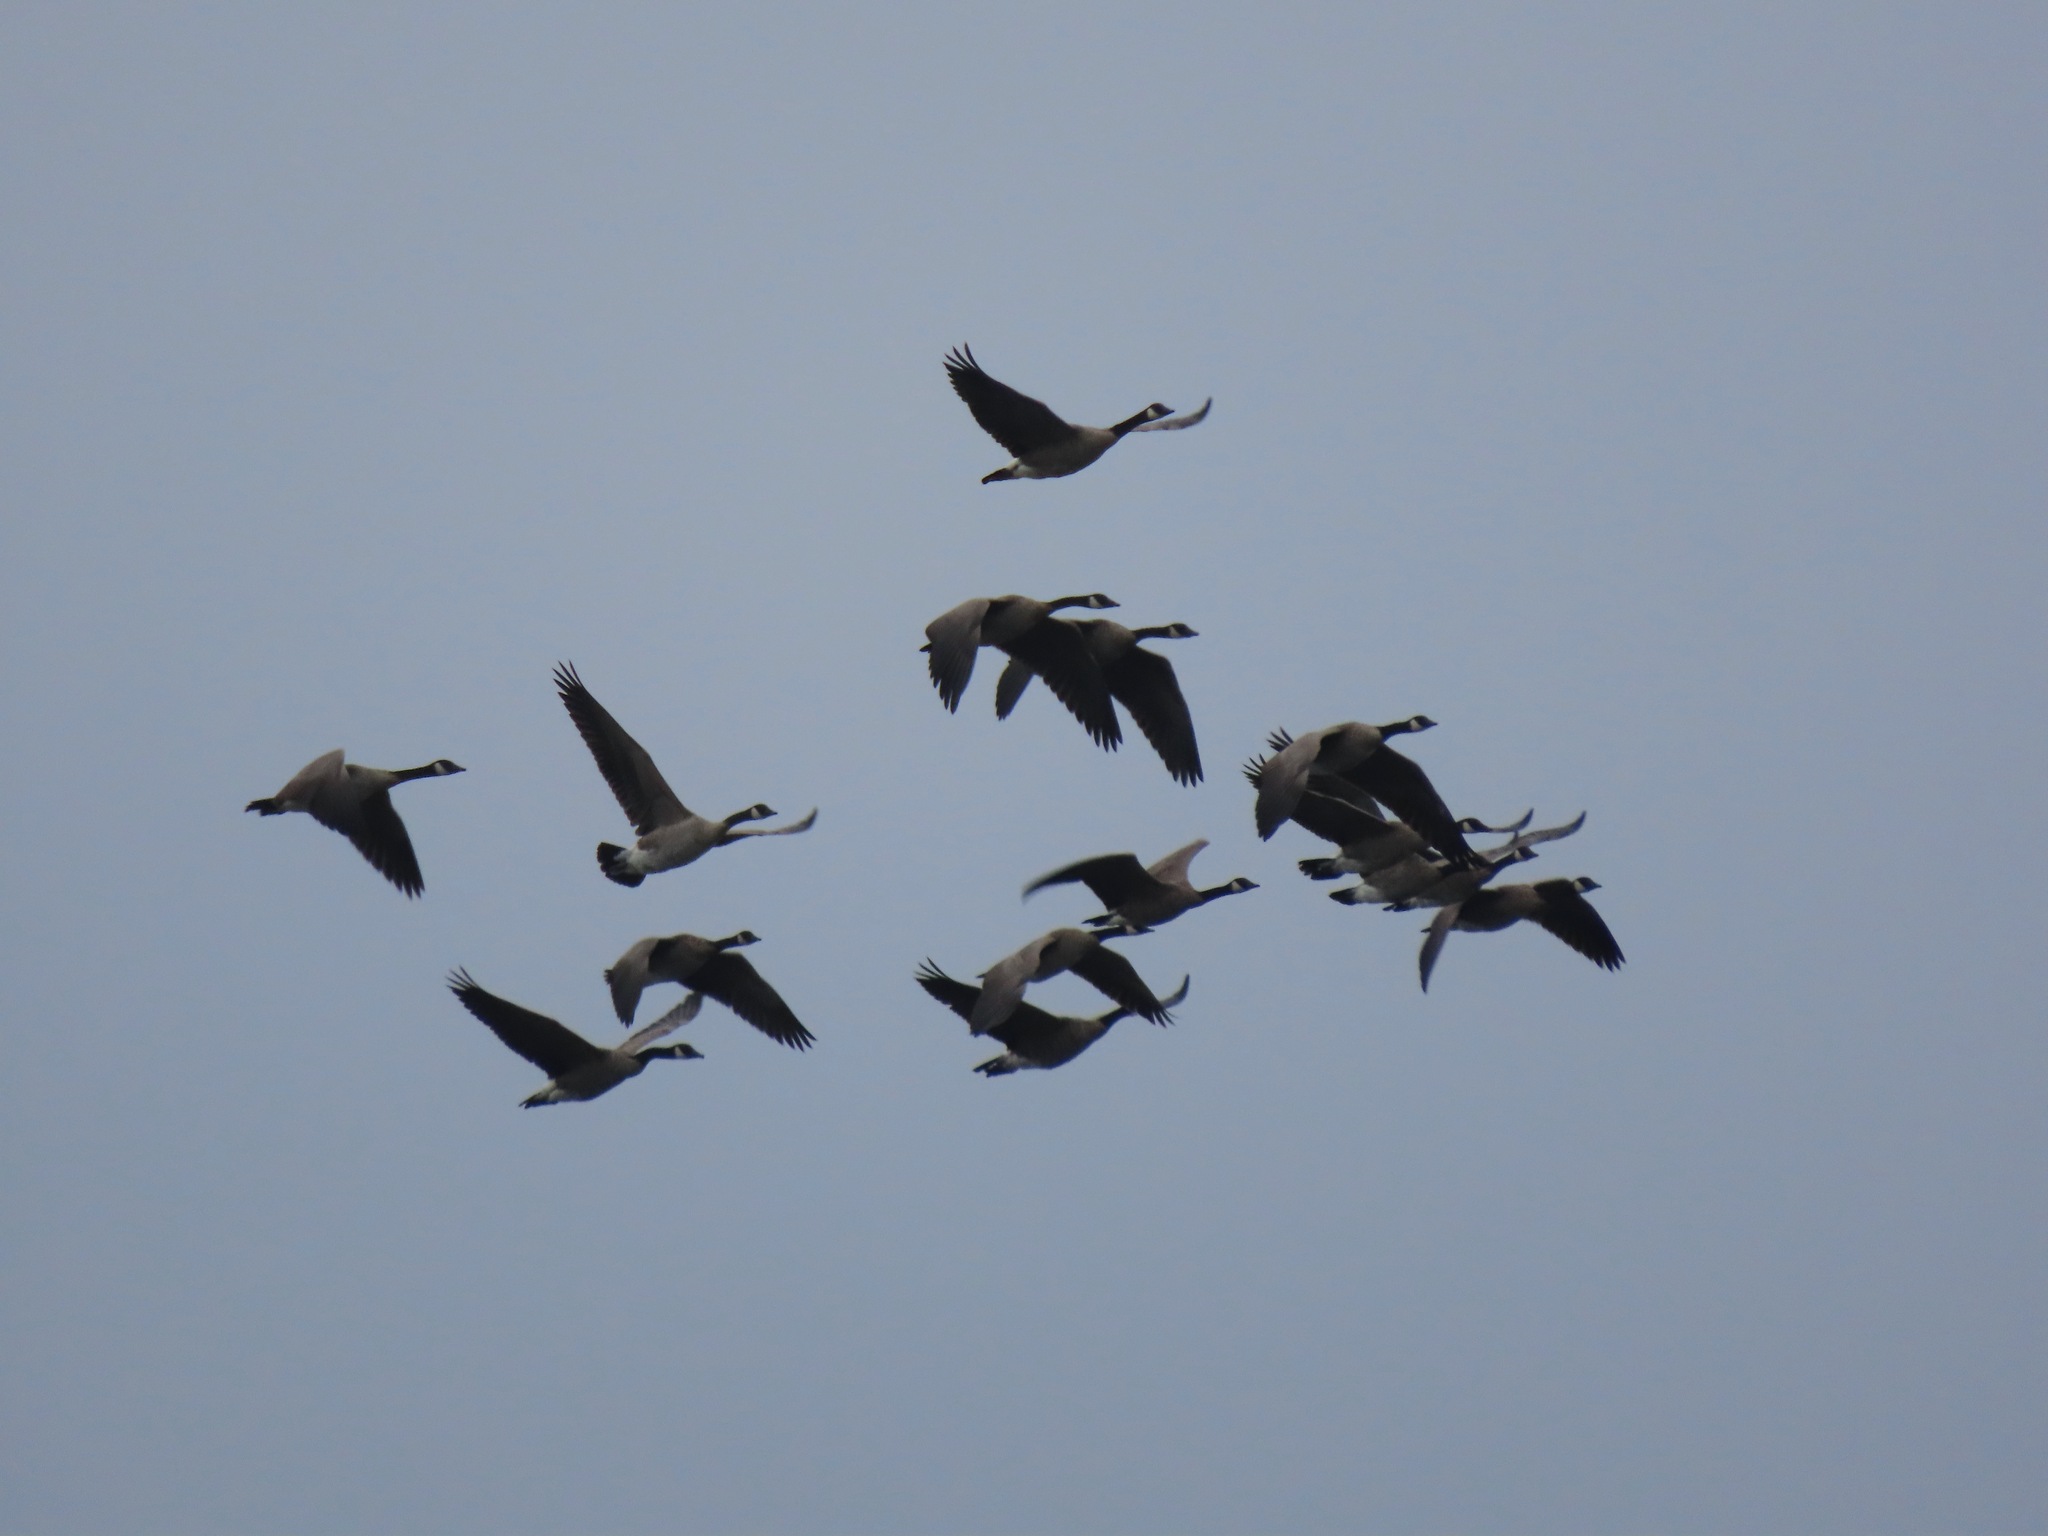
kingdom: Animalia
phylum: Chordata
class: Aves
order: Anseriformes
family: Anatidae
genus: Branta
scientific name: Branta canadensis
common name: Canada goose
